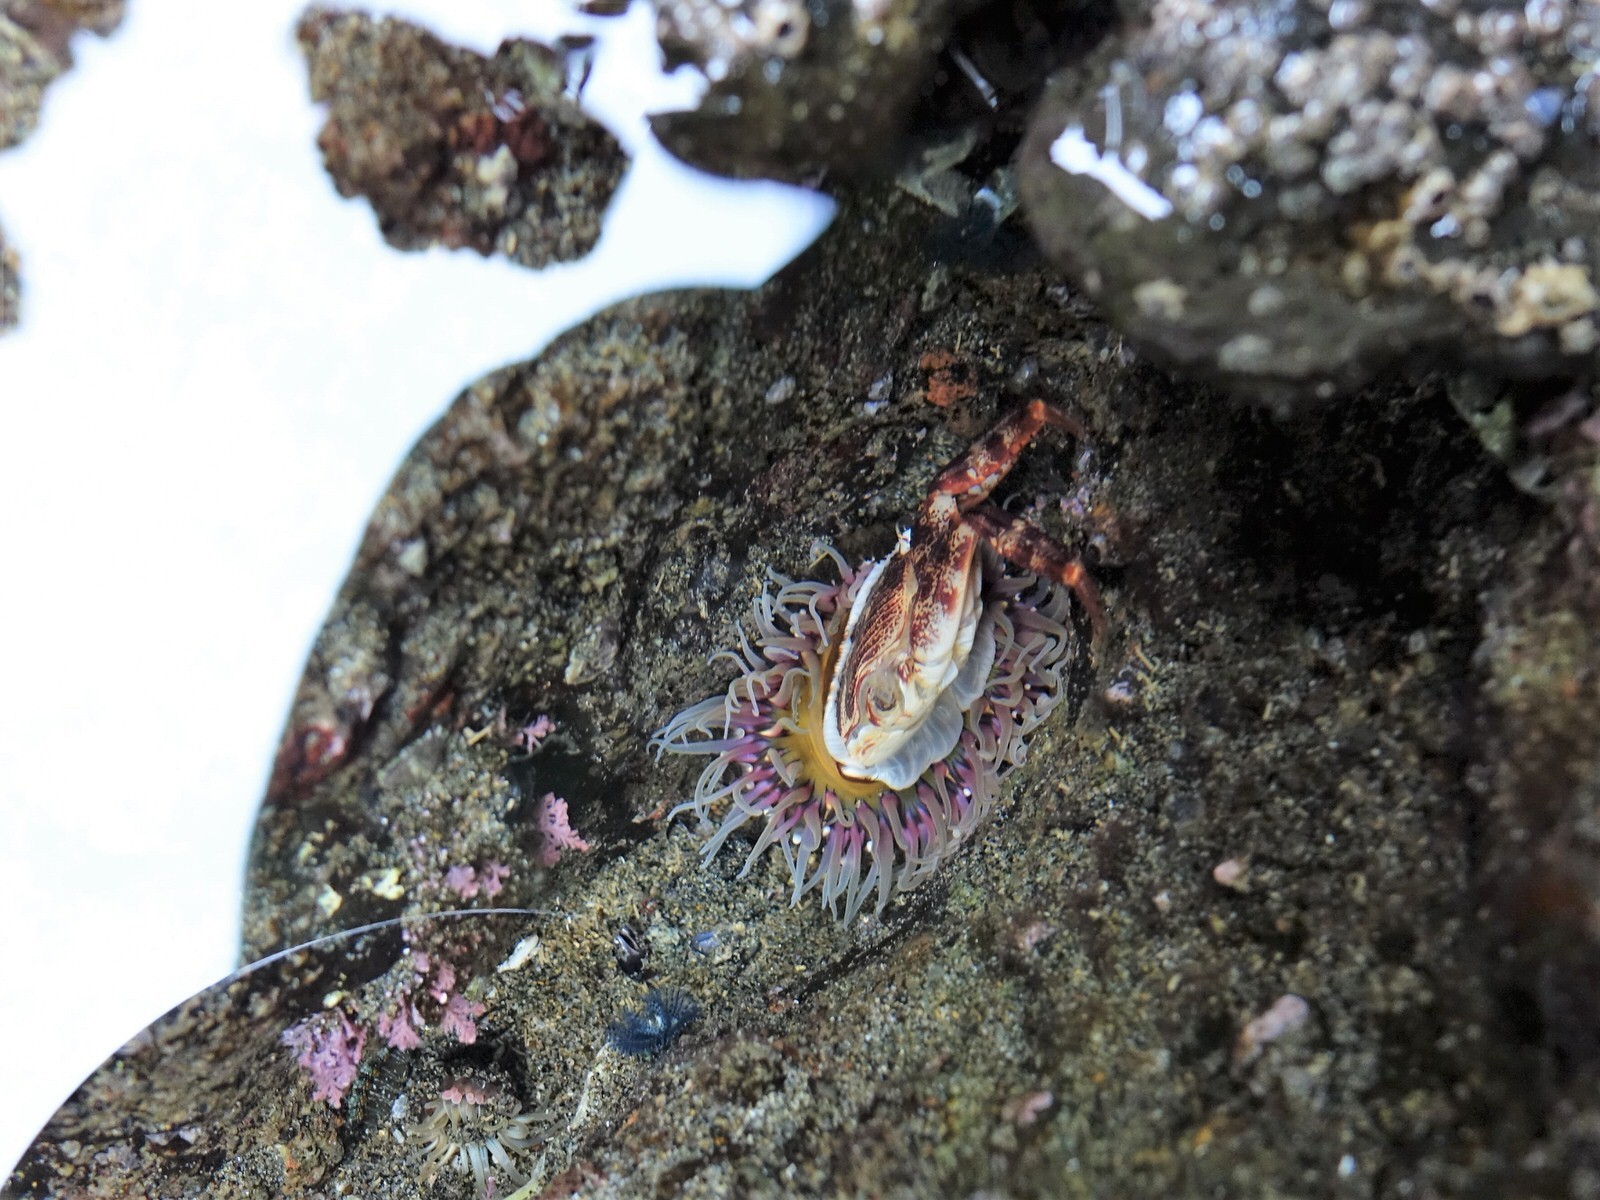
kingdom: Animalia
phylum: Cnidaria
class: Anthozoa
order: Actiniaria
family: Actiniidae
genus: Oulactis
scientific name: Oulactis magna
